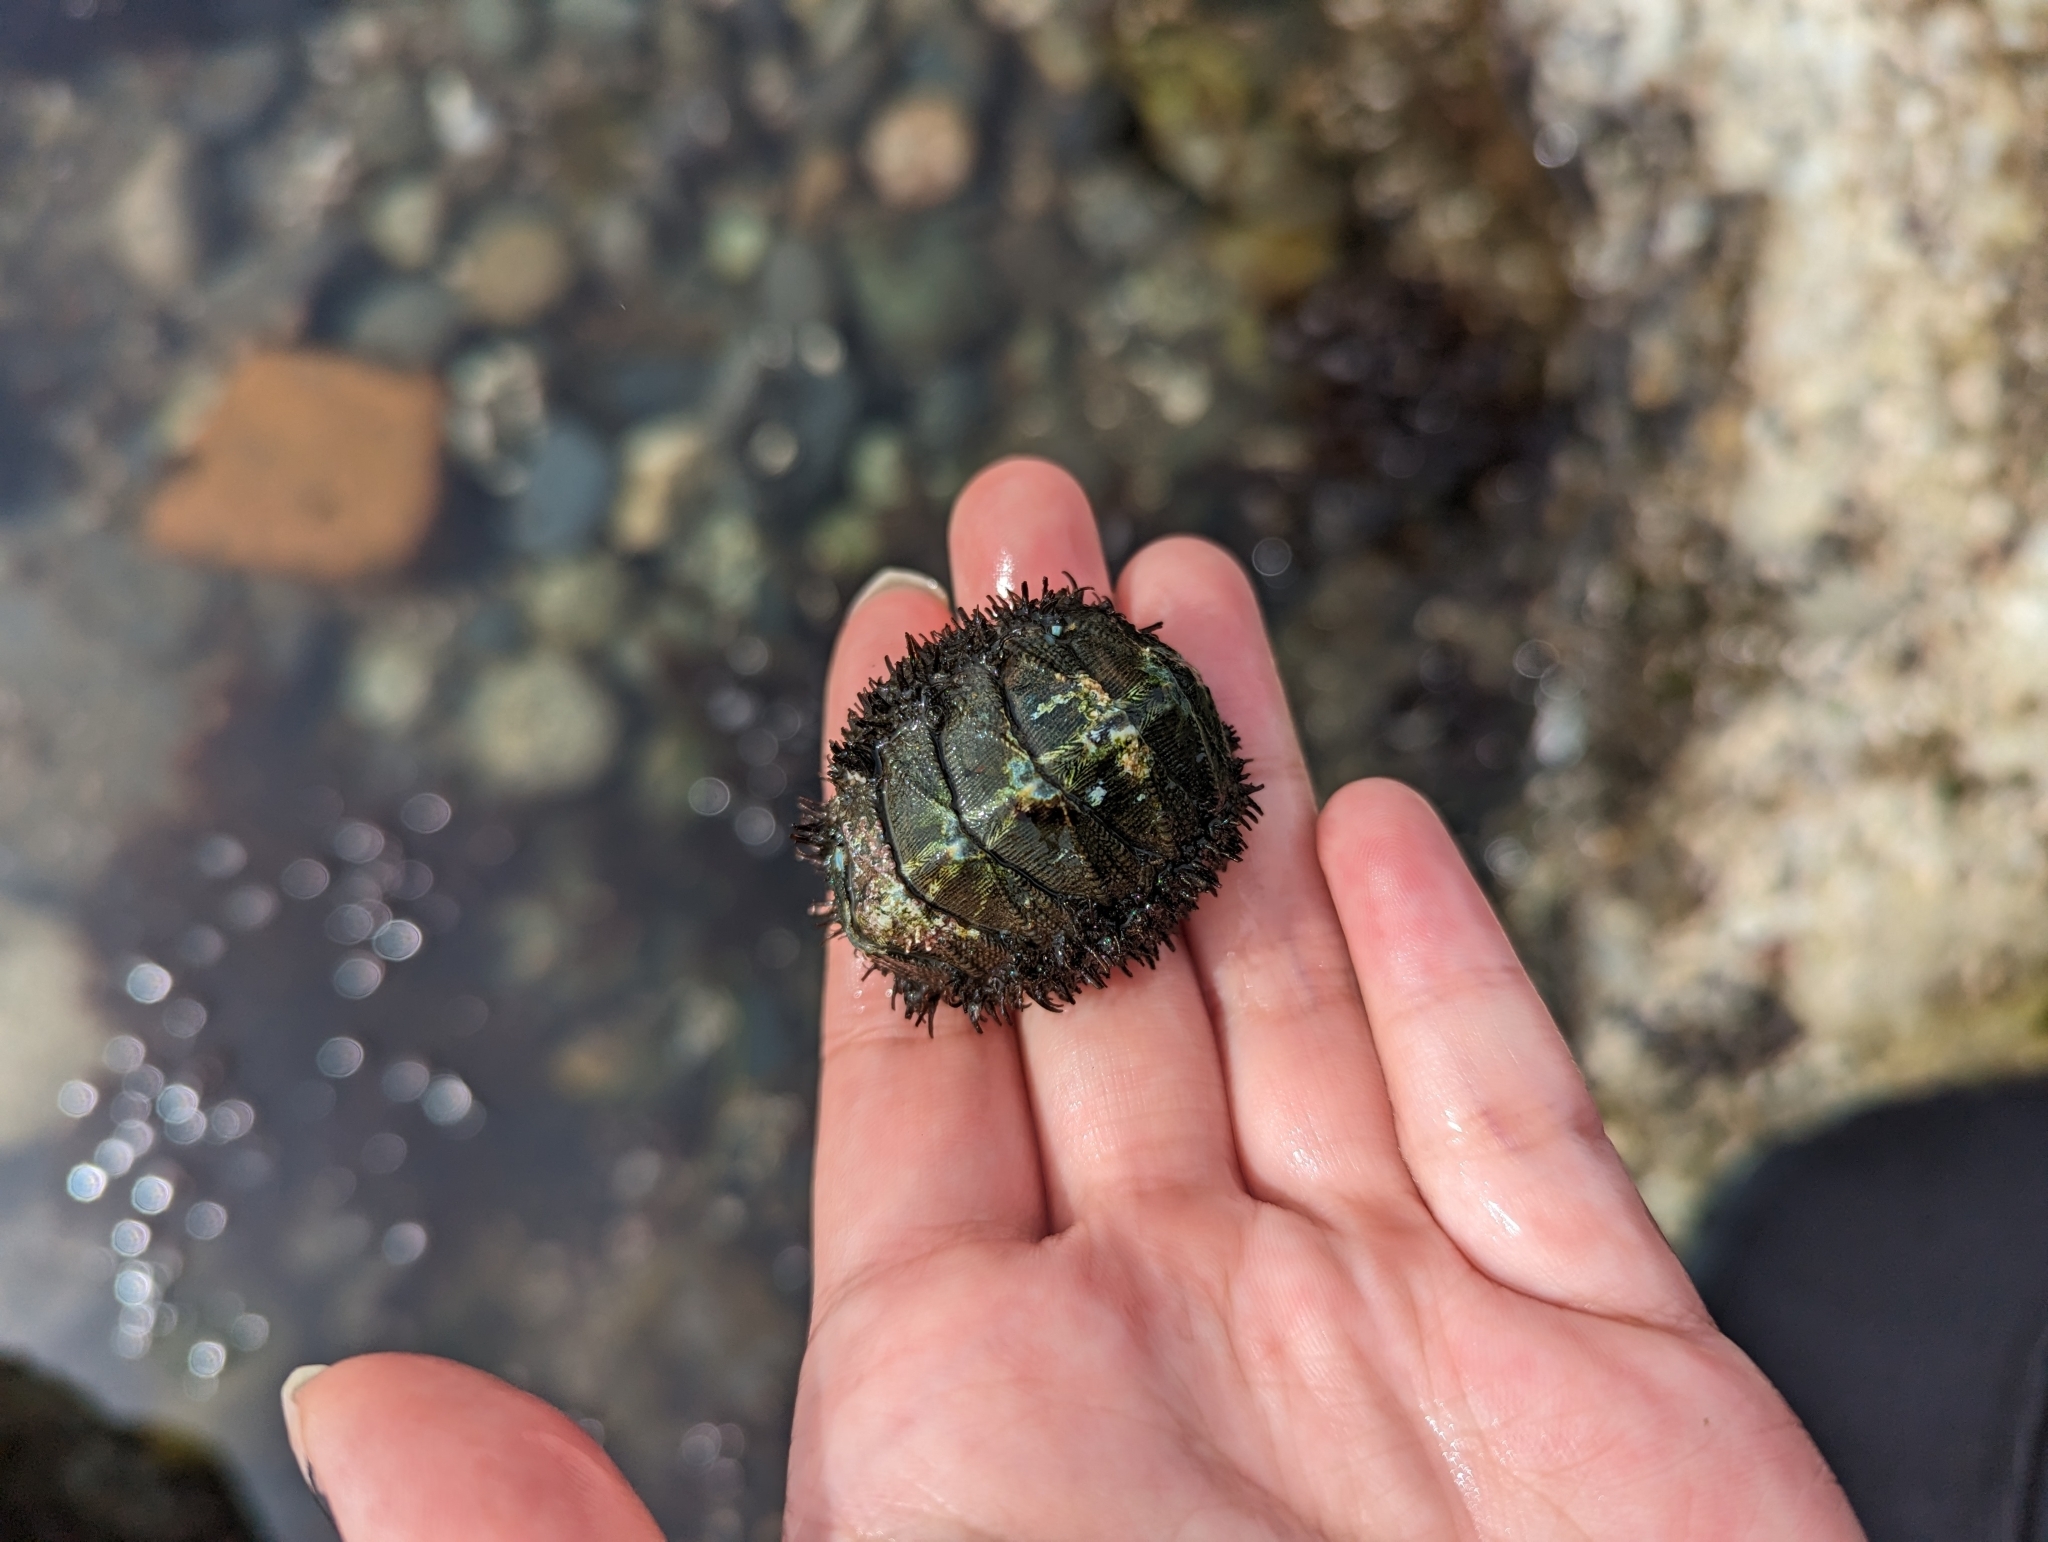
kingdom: Animalia
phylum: Mollusca
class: Polyplacophora
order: Chitonida
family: Mopaliidae
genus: Mopalia
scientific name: Mopalia muscosa
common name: Mossy chiton
